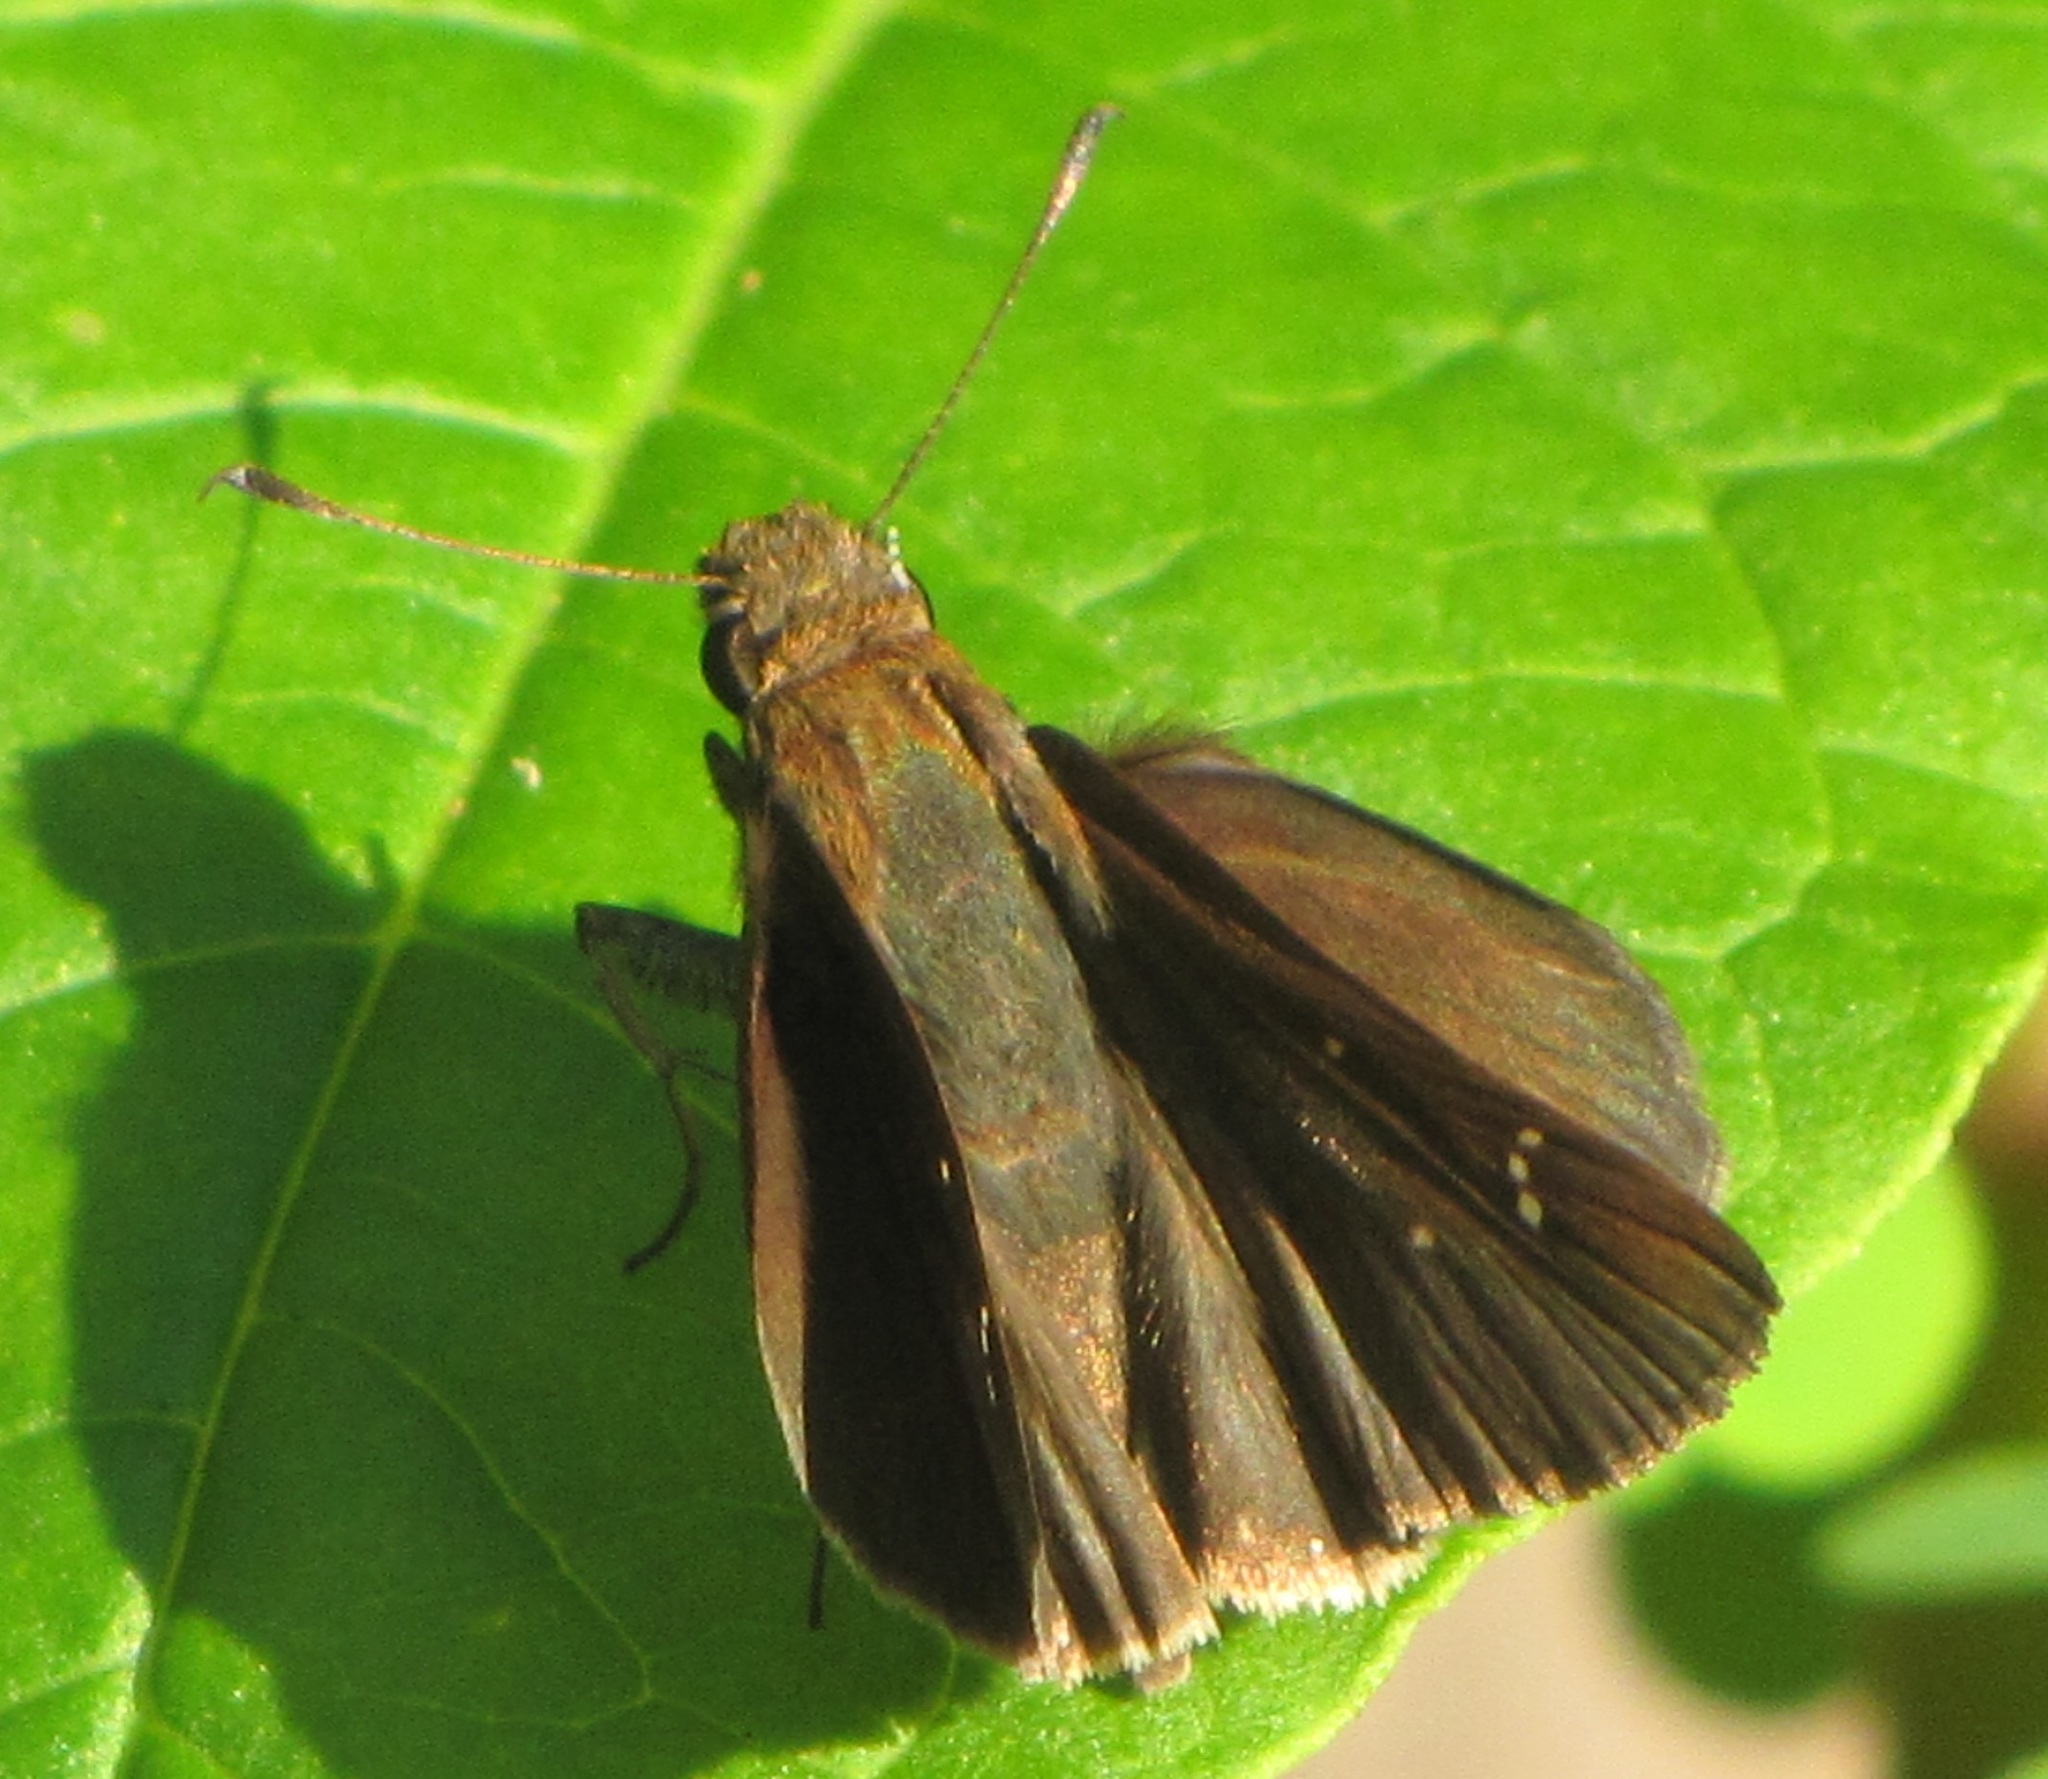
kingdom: Animalia
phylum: Arthropoda
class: Insecta
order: Lepidoptera
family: Hesperiidae
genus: Lerema
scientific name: Lerema accius
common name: Clouded skipper
